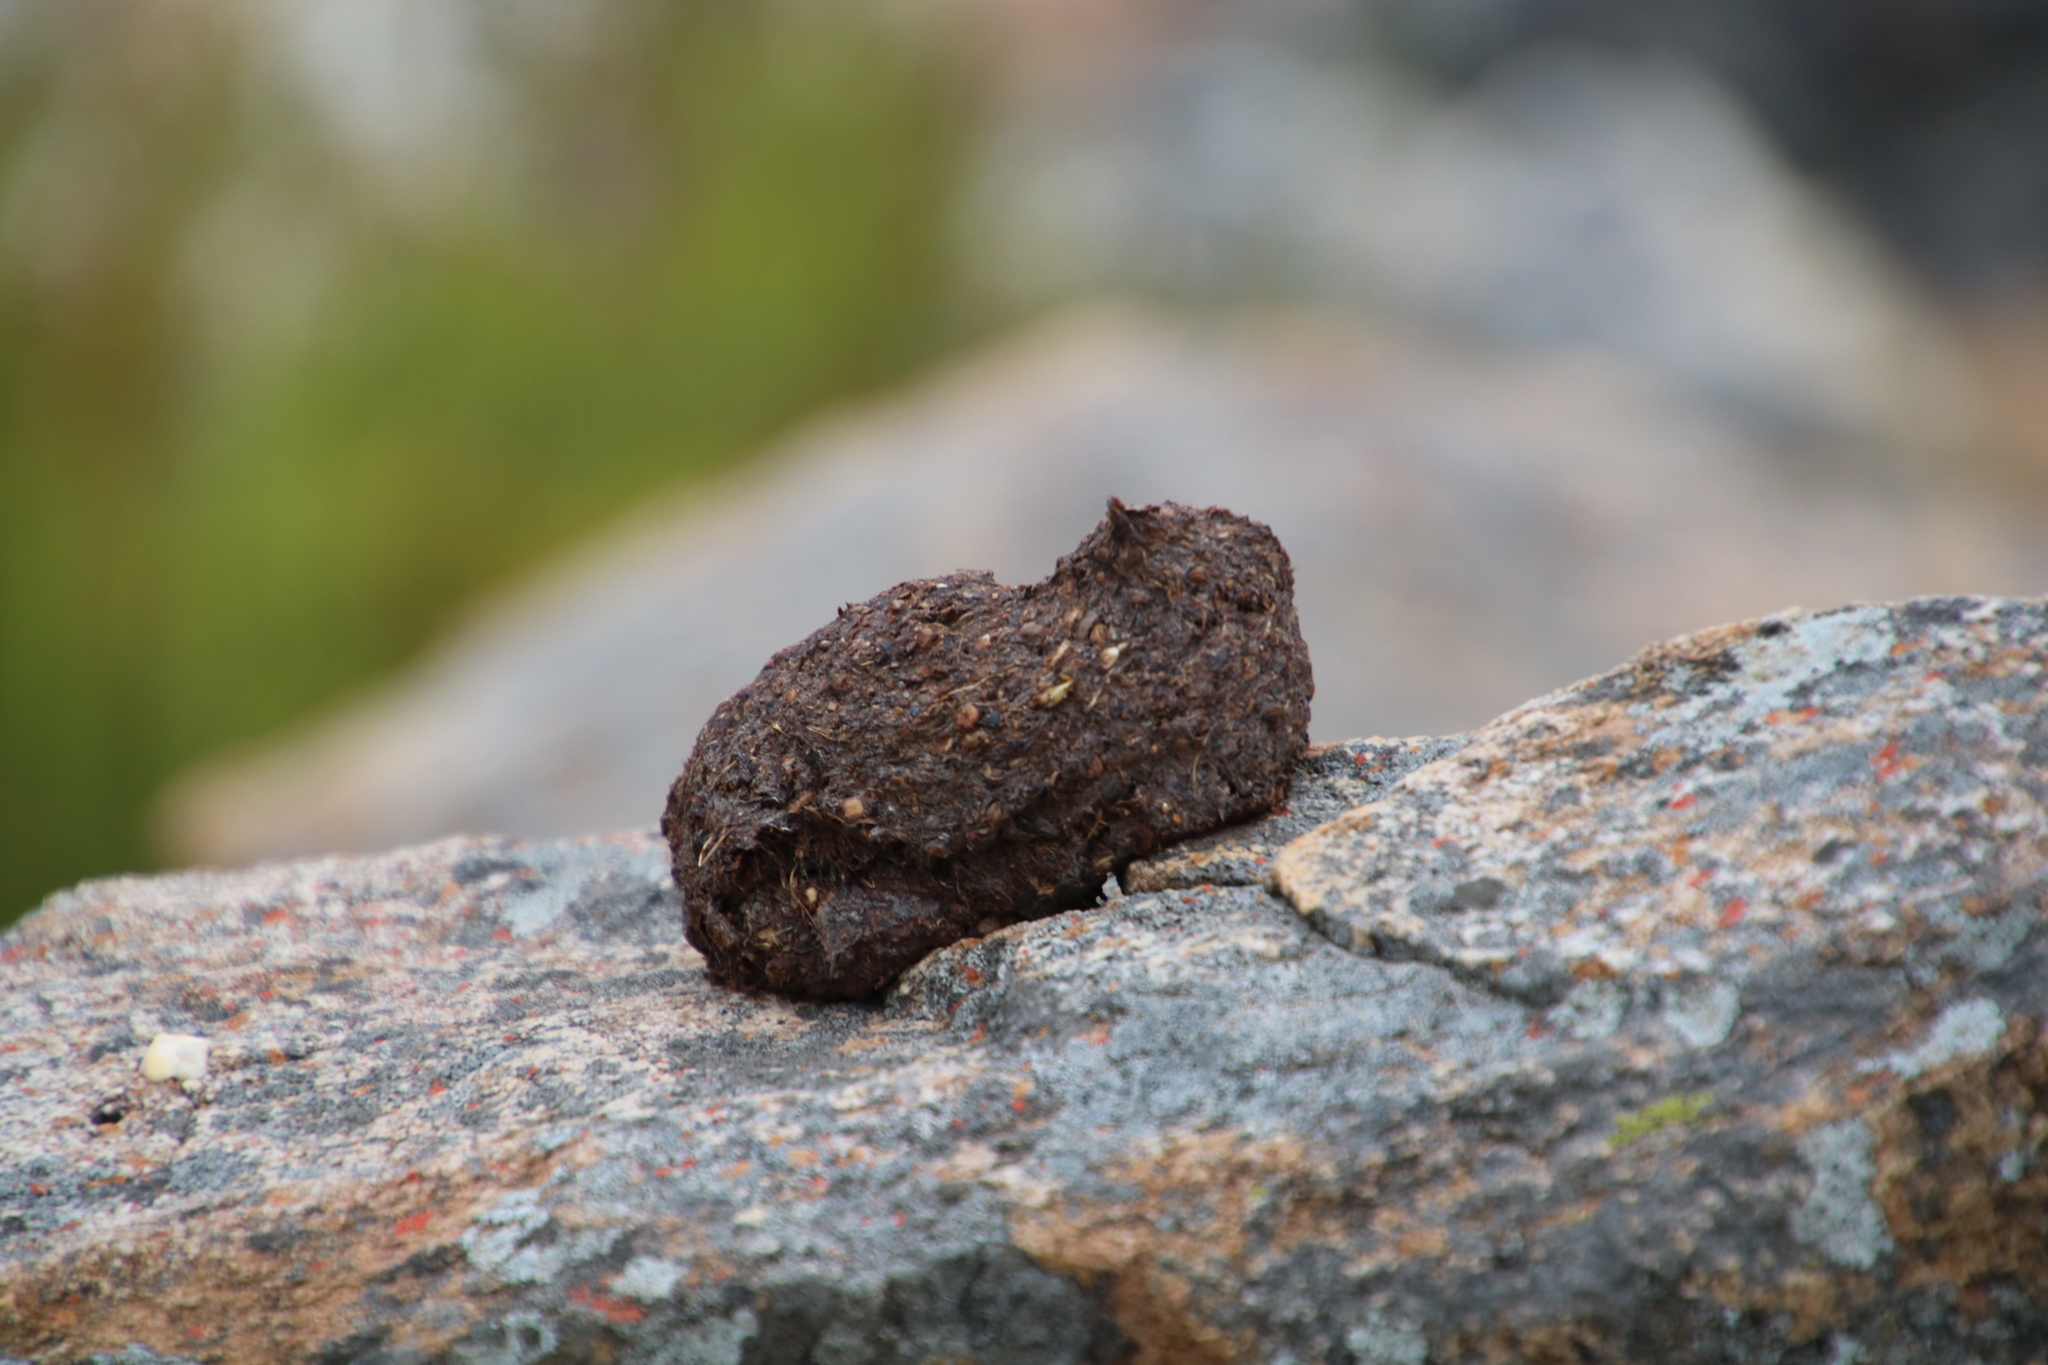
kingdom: Animalia
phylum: Chordata
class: Mammalia
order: Primates
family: Cercopithecidae
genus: Papio
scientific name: Papio ursinus
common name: Chacma baboon
